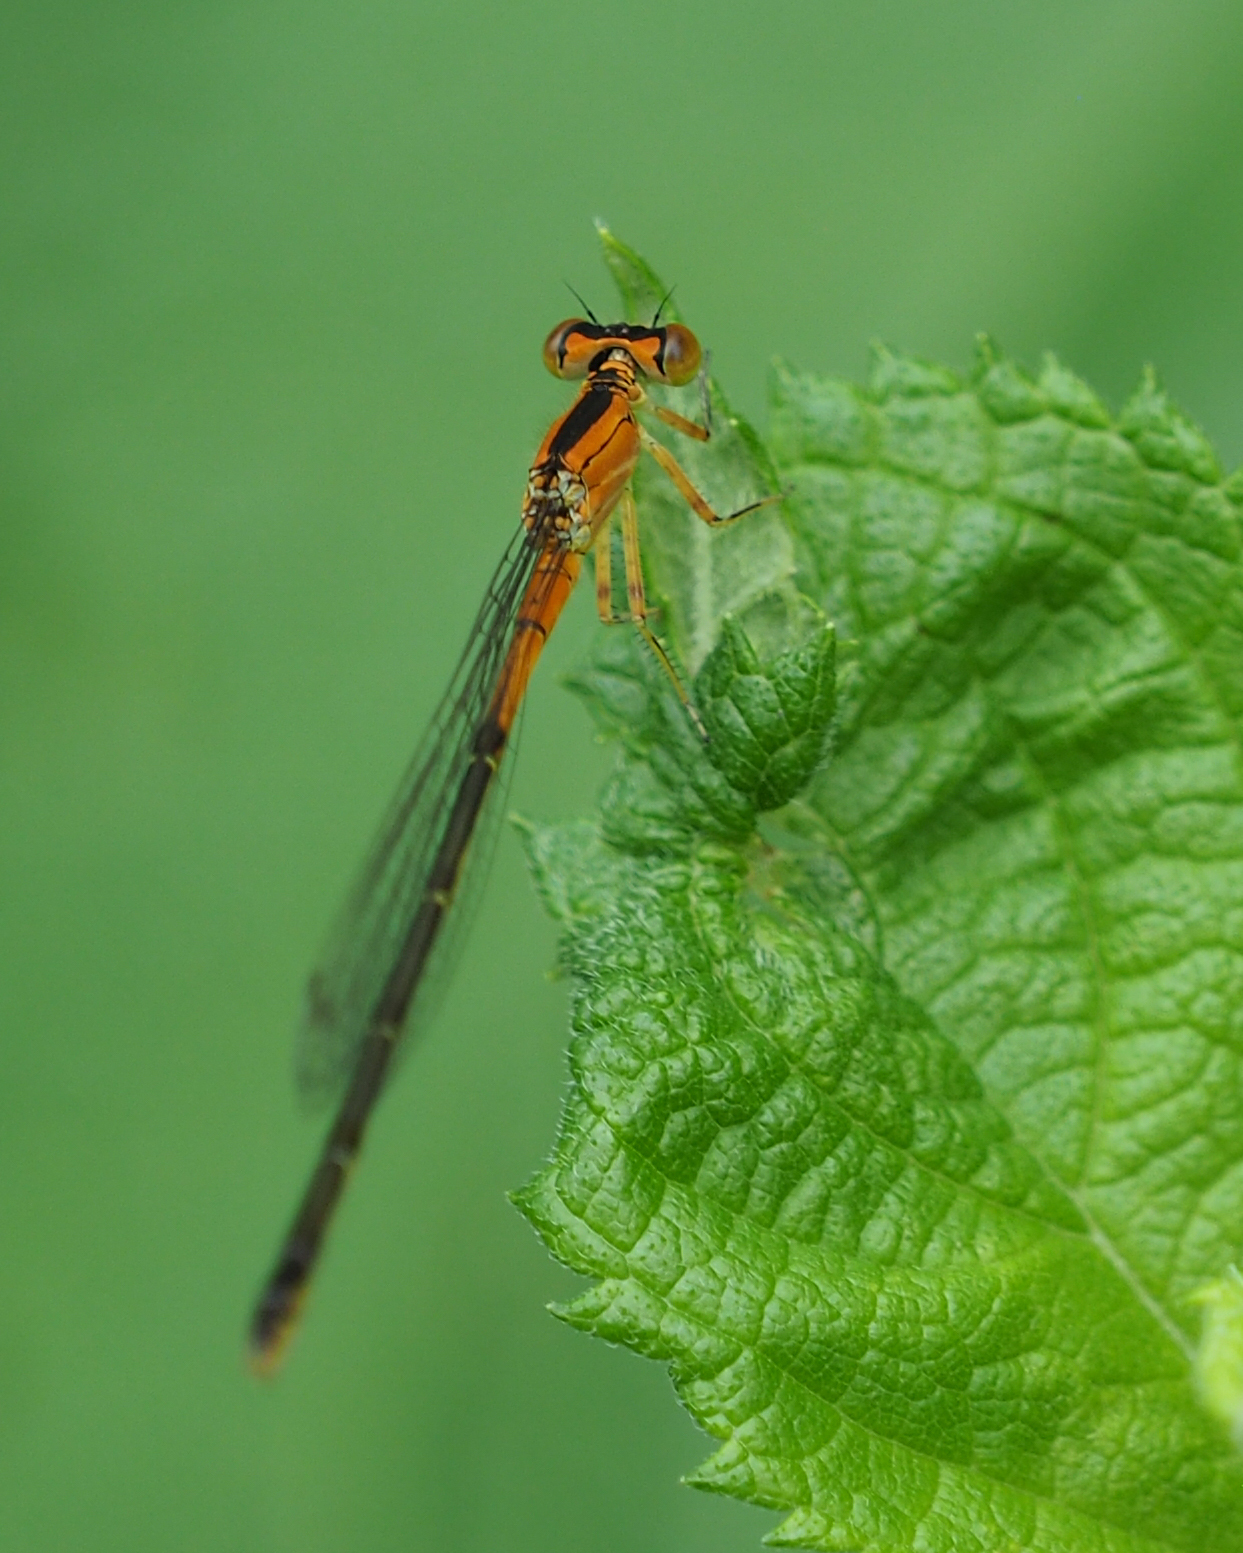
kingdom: Animalia
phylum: Arthropoda
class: Insecta
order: Odonata
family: Coenagrionidae
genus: Ischnura
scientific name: Ischnura verticalis
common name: Eastern forktail
